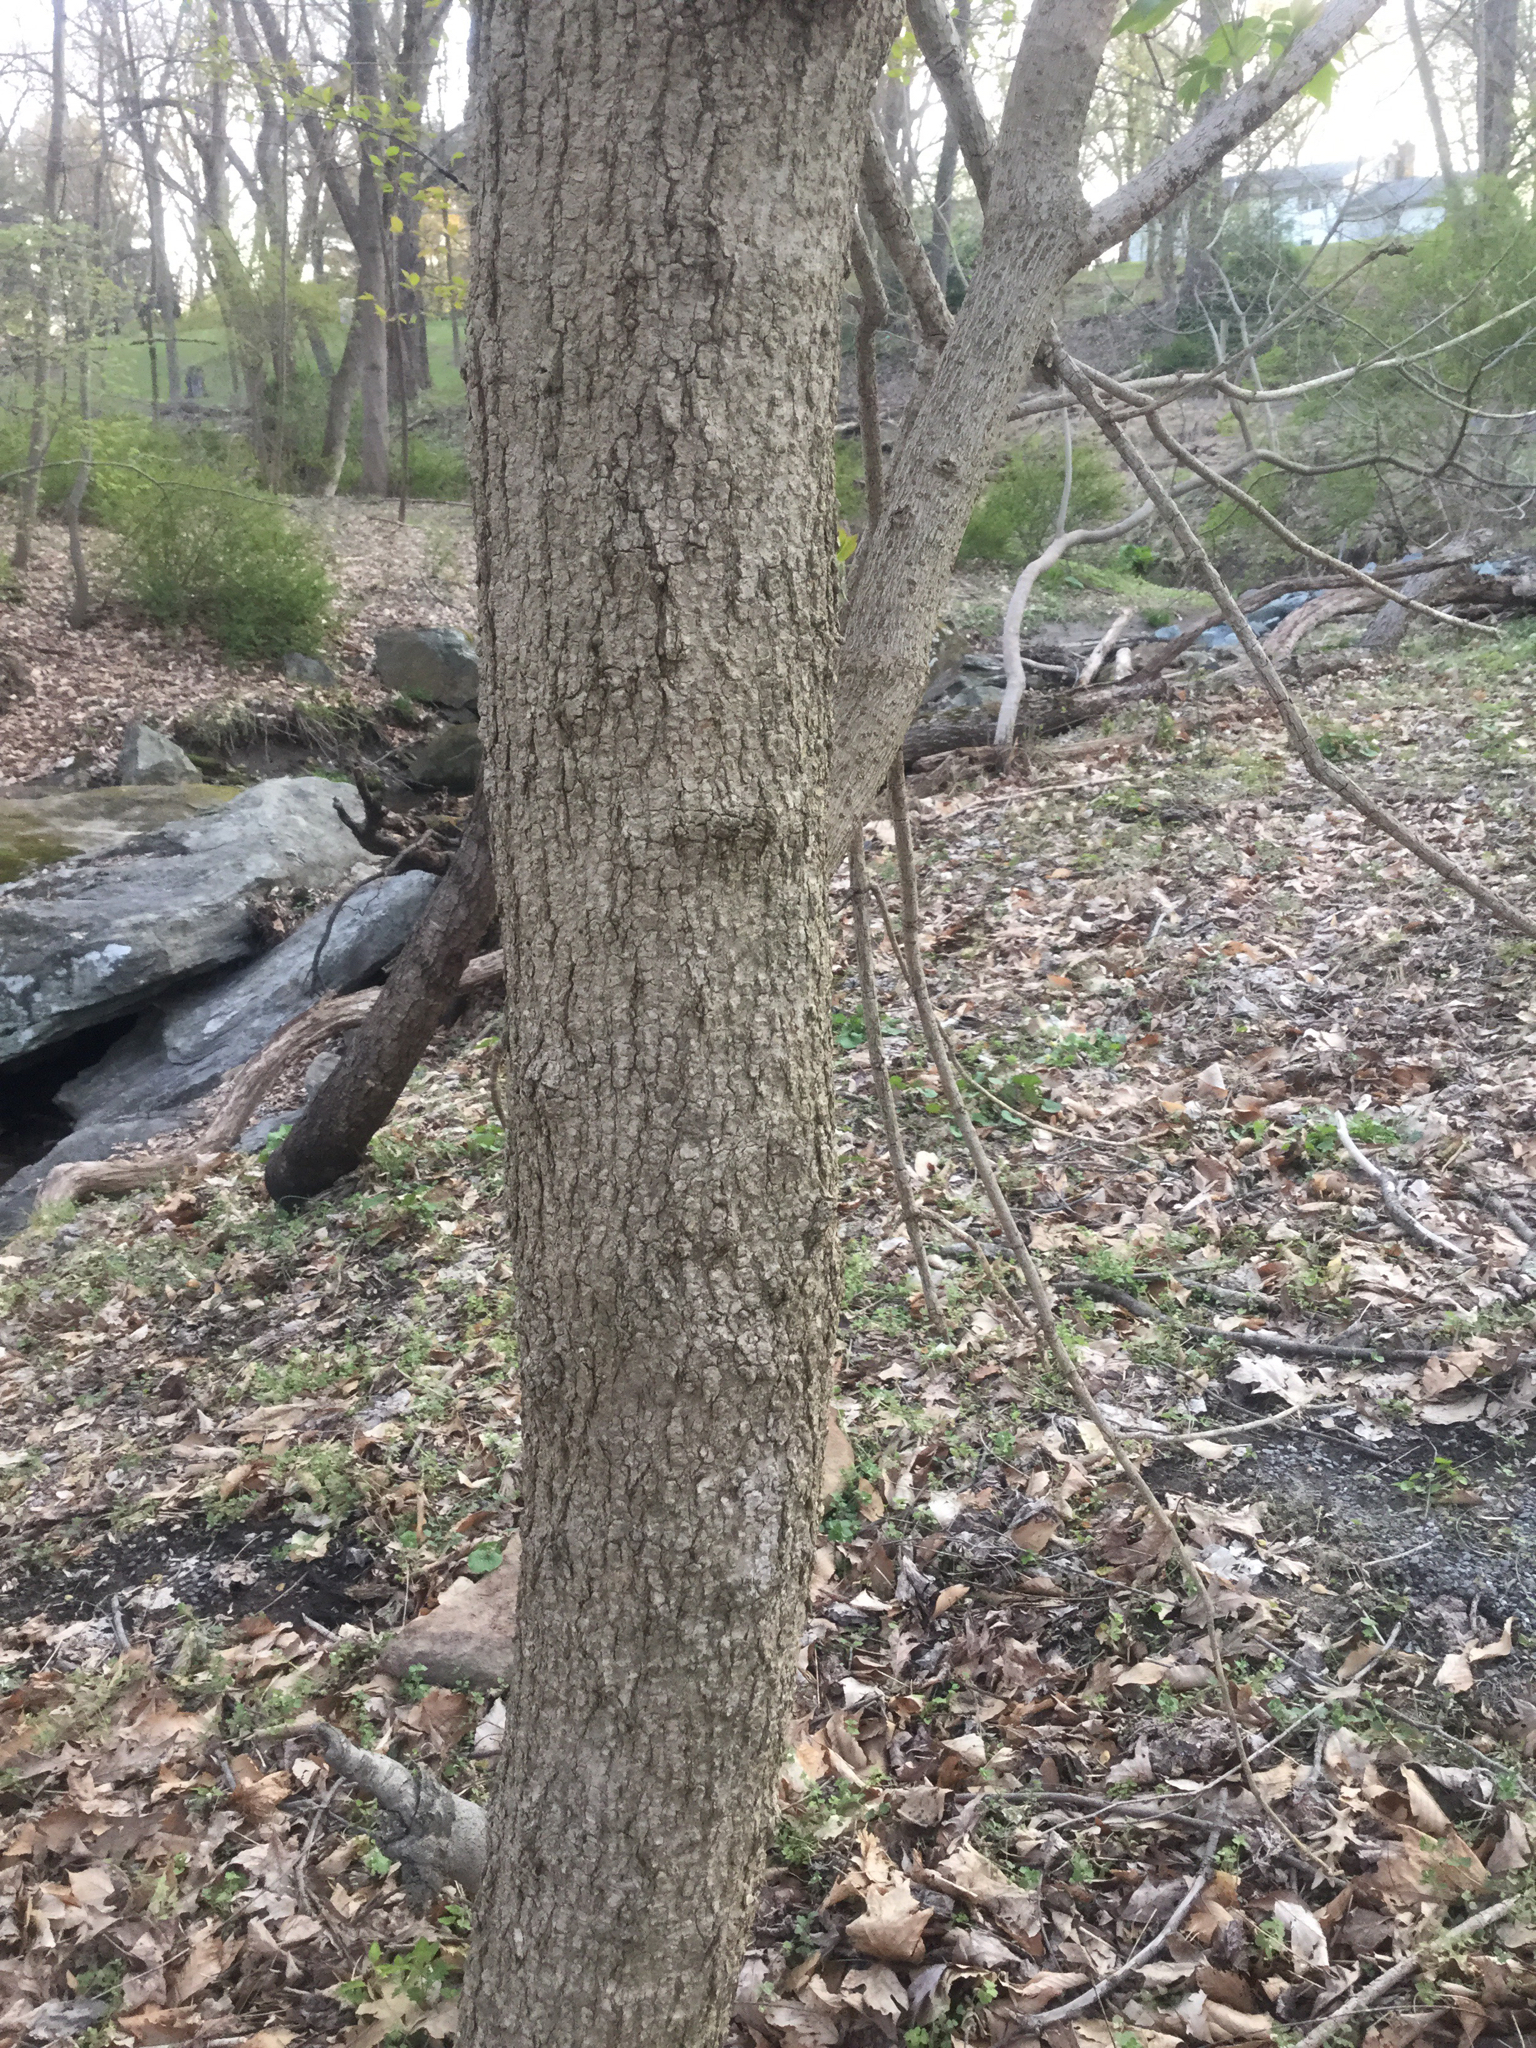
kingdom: Plantae
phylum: Tracheophyta
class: Magnoliopsida
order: Sapindales
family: Sapindaceae
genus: Acer
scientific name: Acer negundo
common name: Ashleaf maple
